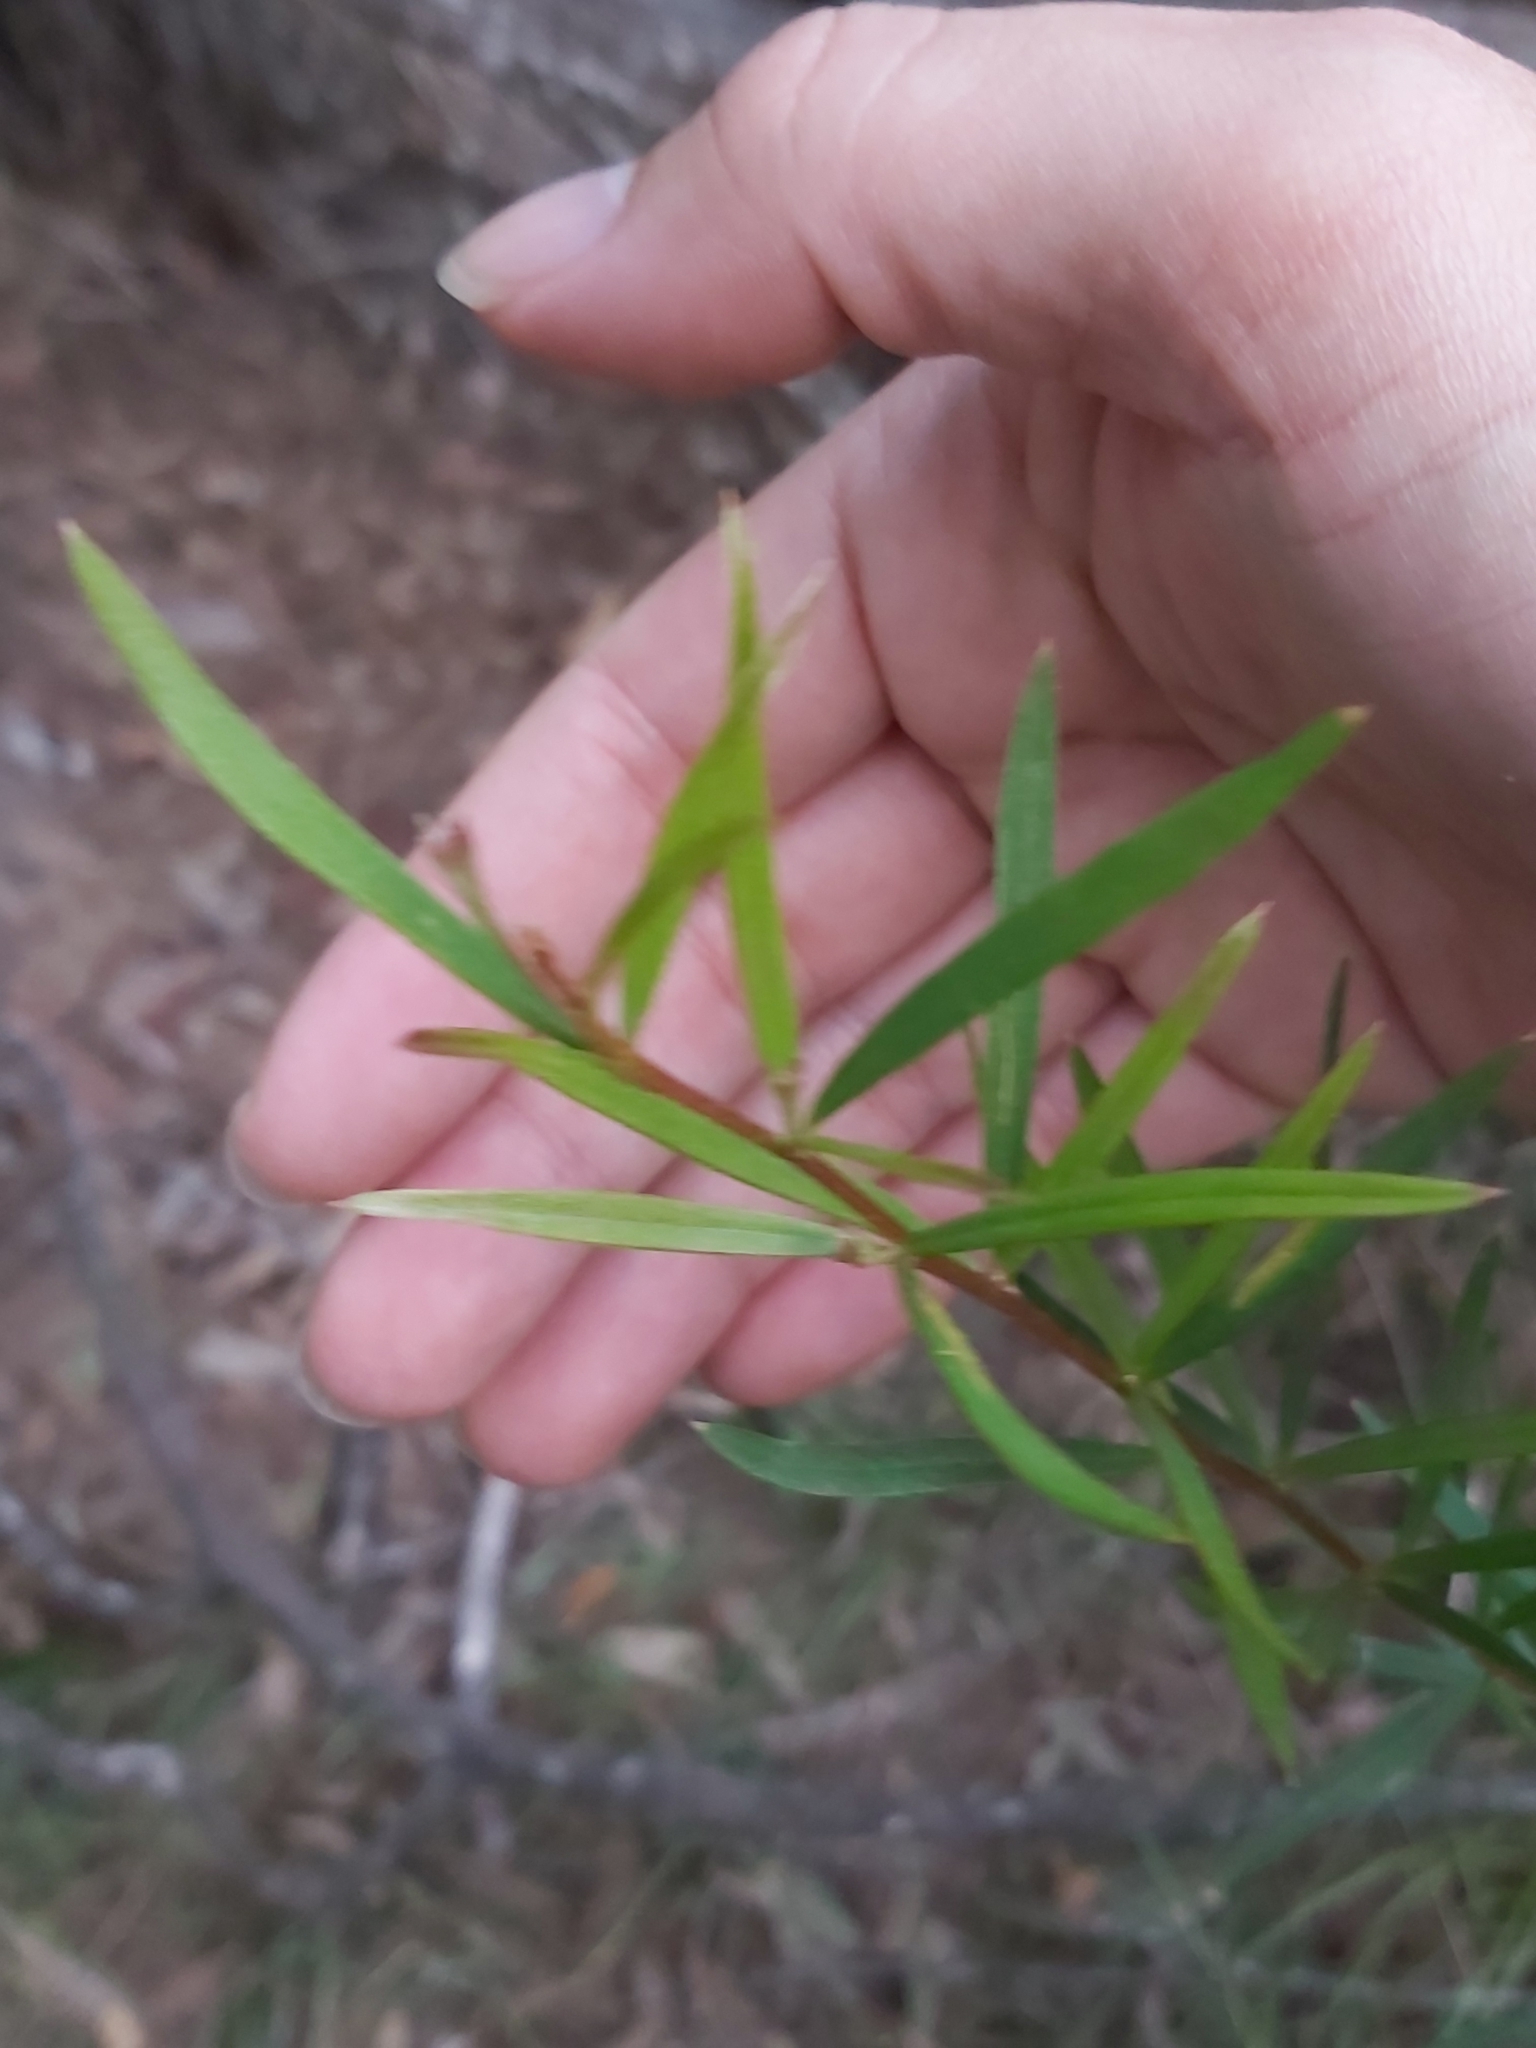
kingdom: Plantae
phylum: Tracheophyta
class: Magnoliopsida
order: Proteales
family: Proteaceae
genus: Grevillea
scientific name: Grevillea linearifolia
